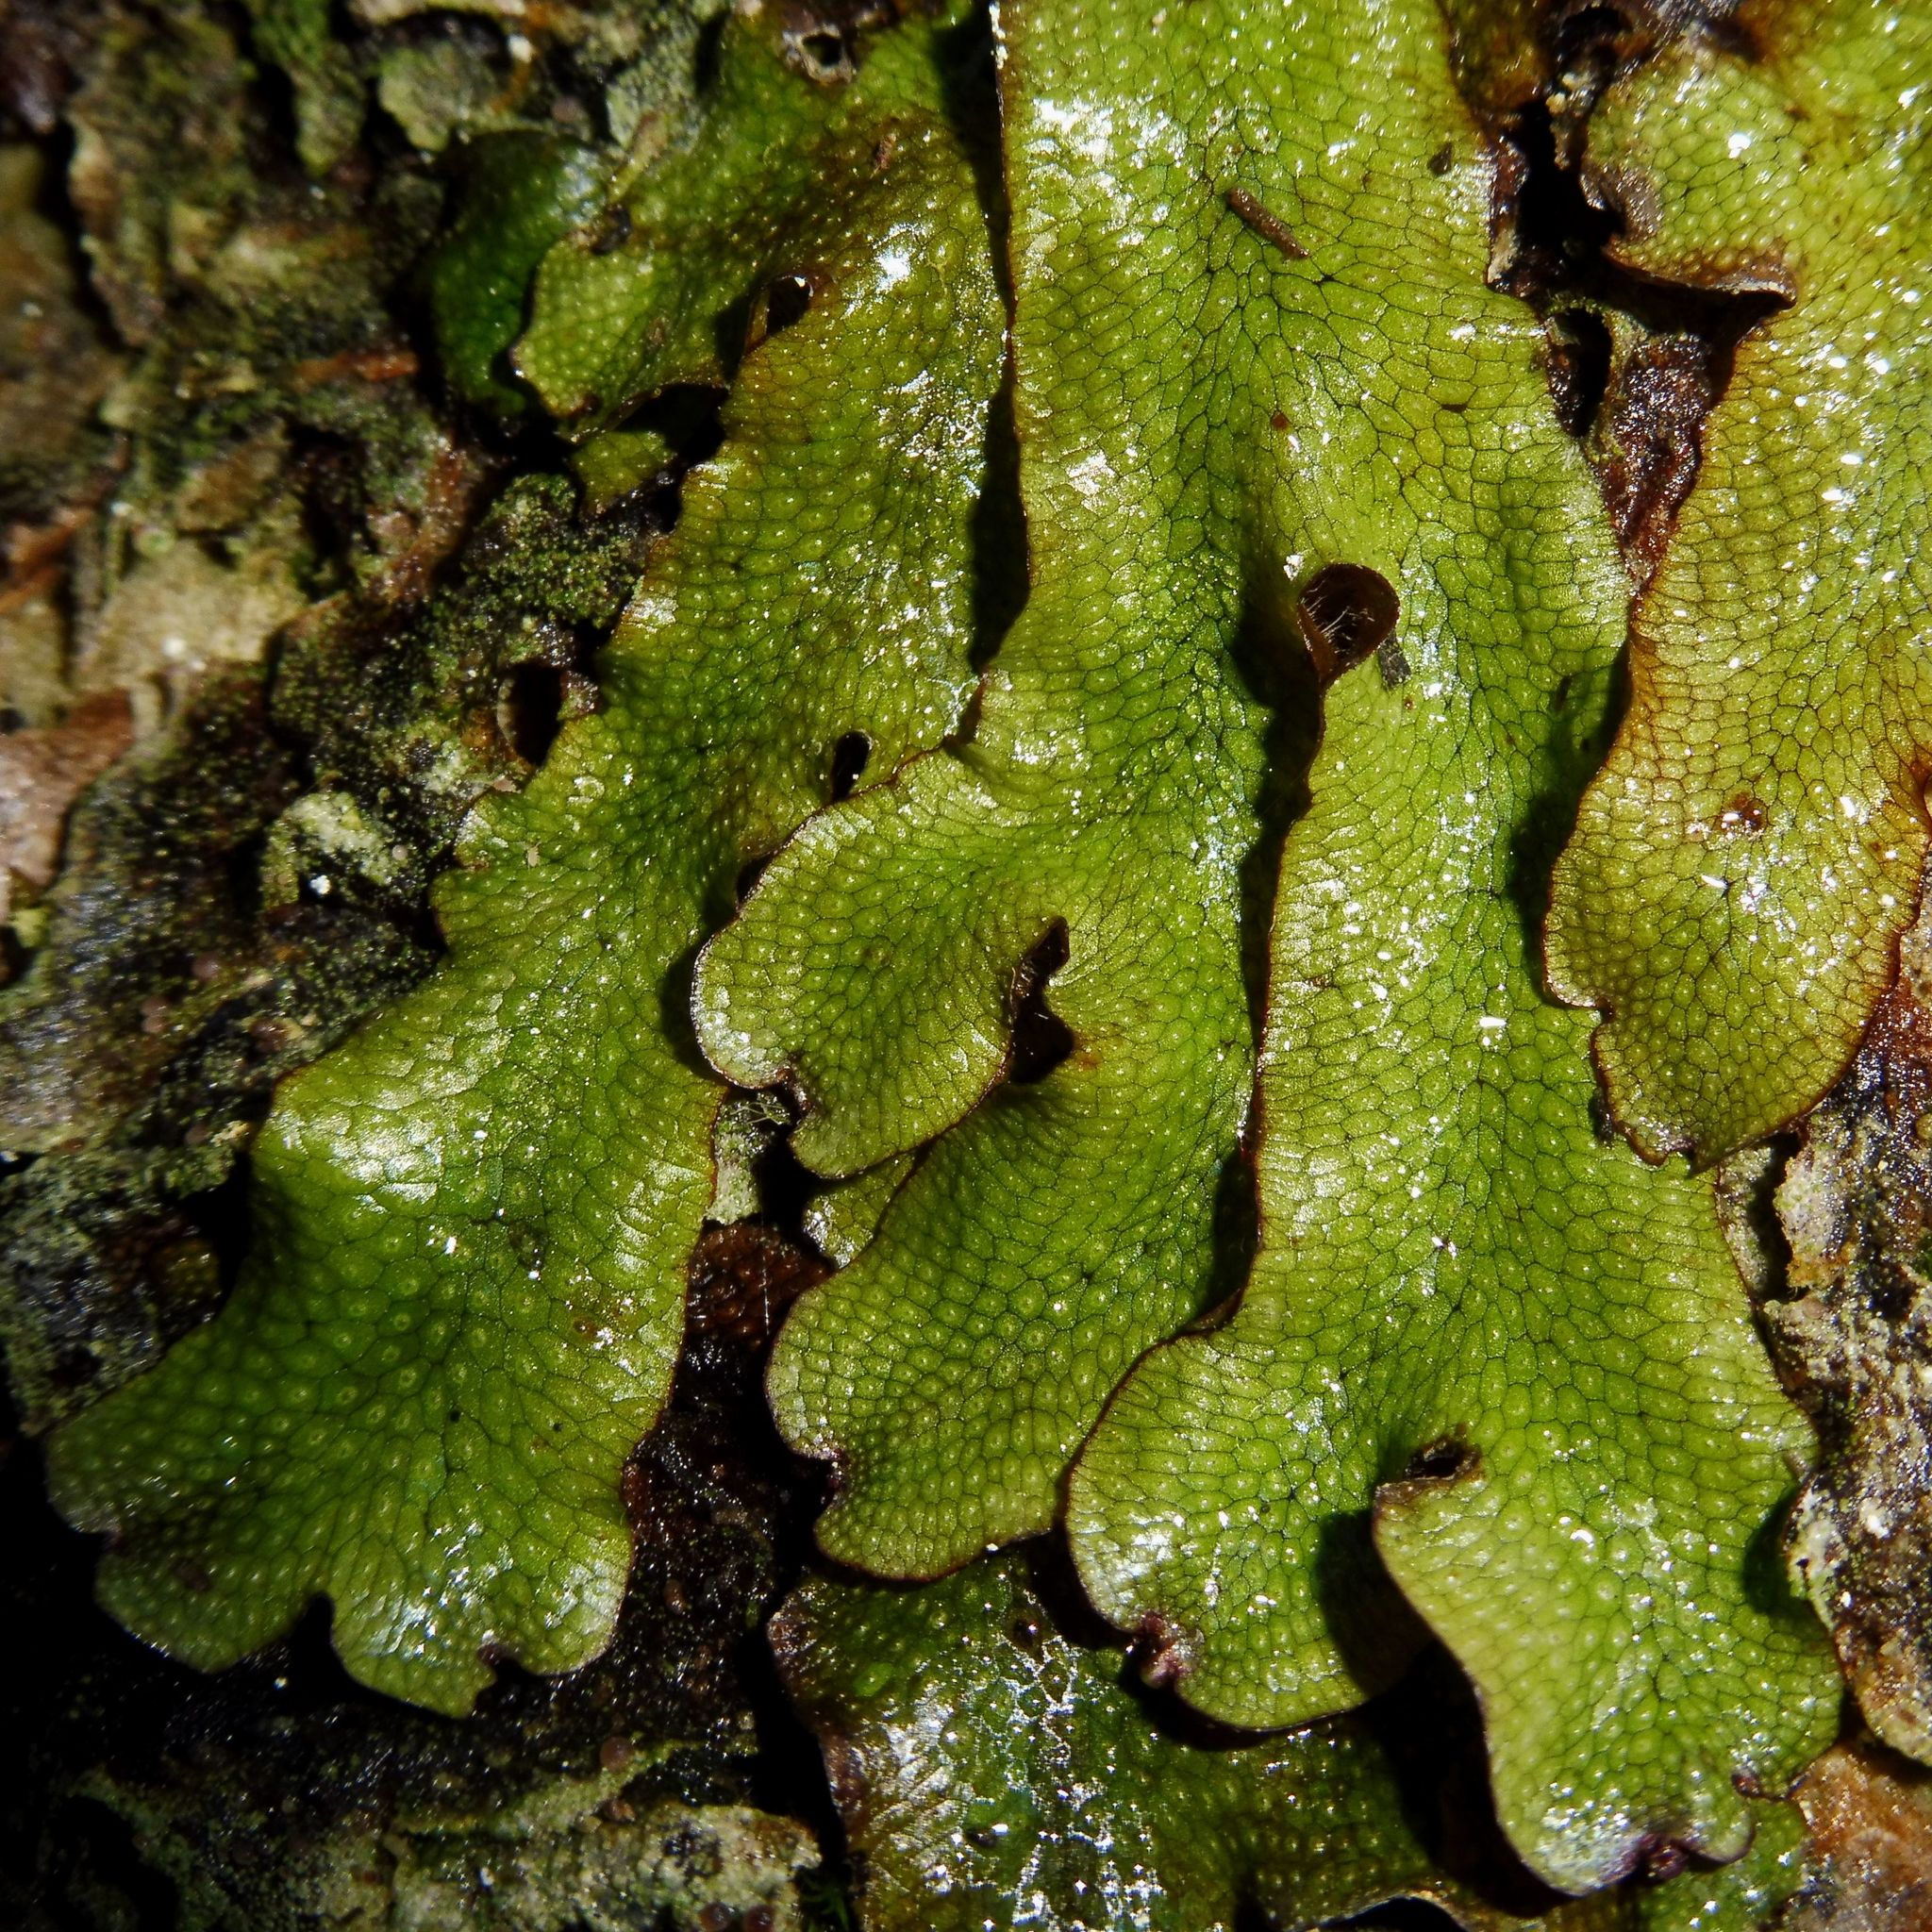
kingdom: Plantae
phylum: Marchantiophyta
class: Marchantiopsida
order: Marchantiales
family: Conocephalaceae
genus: Conocephalum
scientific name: Conocephalum conicum
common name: Great scented liverwort
